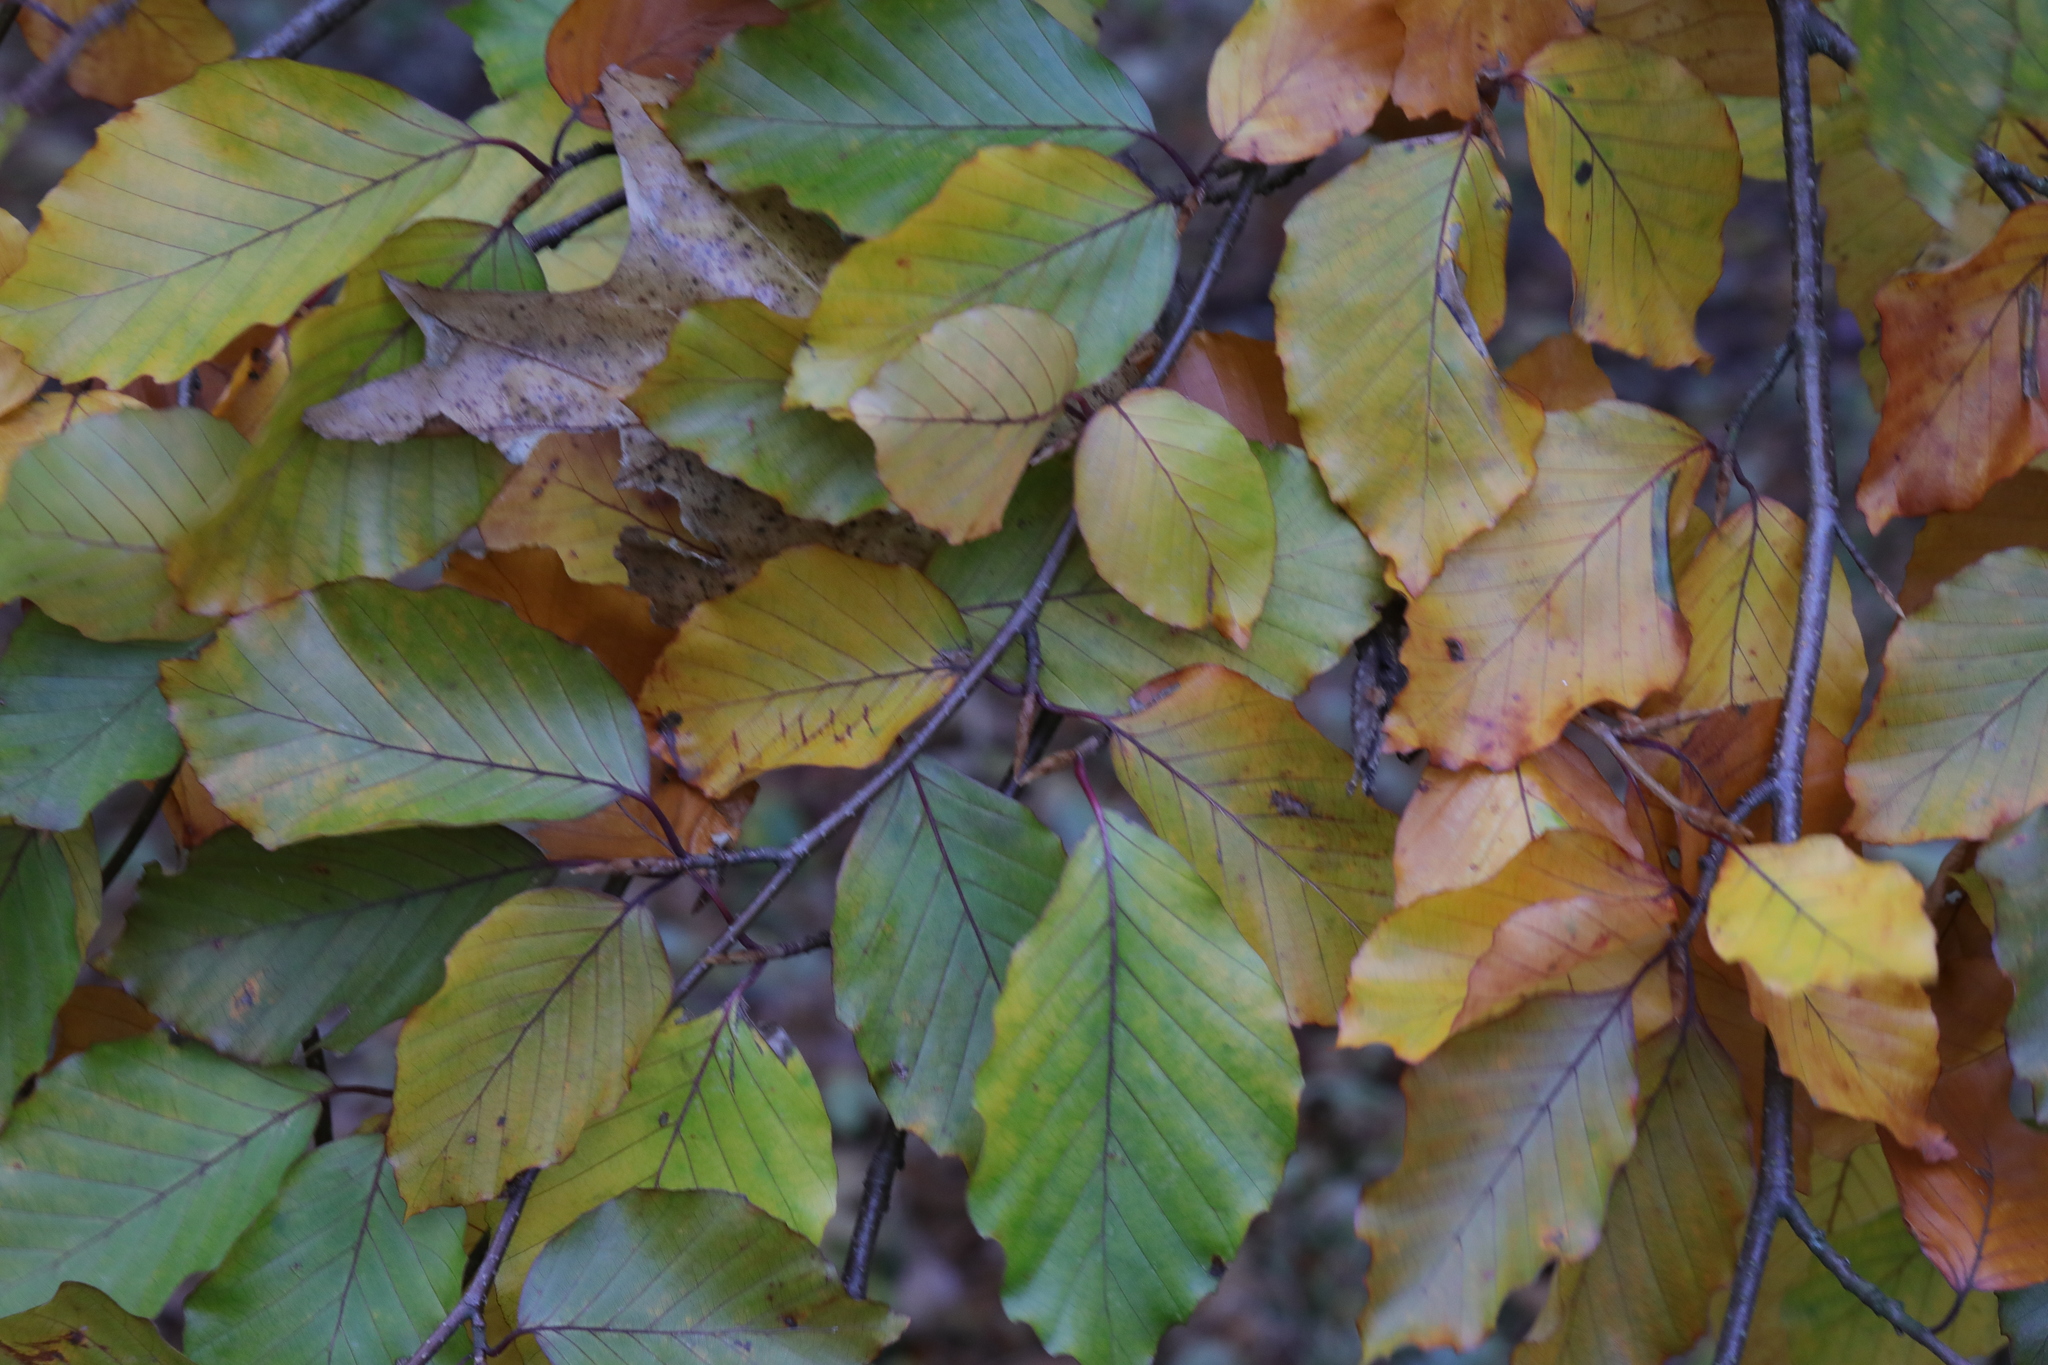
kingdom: Plantae
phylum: Tracheophyta
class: Magnoliopsida
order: Fagales
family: Fagaceae
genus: Fagus
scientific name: Fagus sylvatica
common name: Beech
